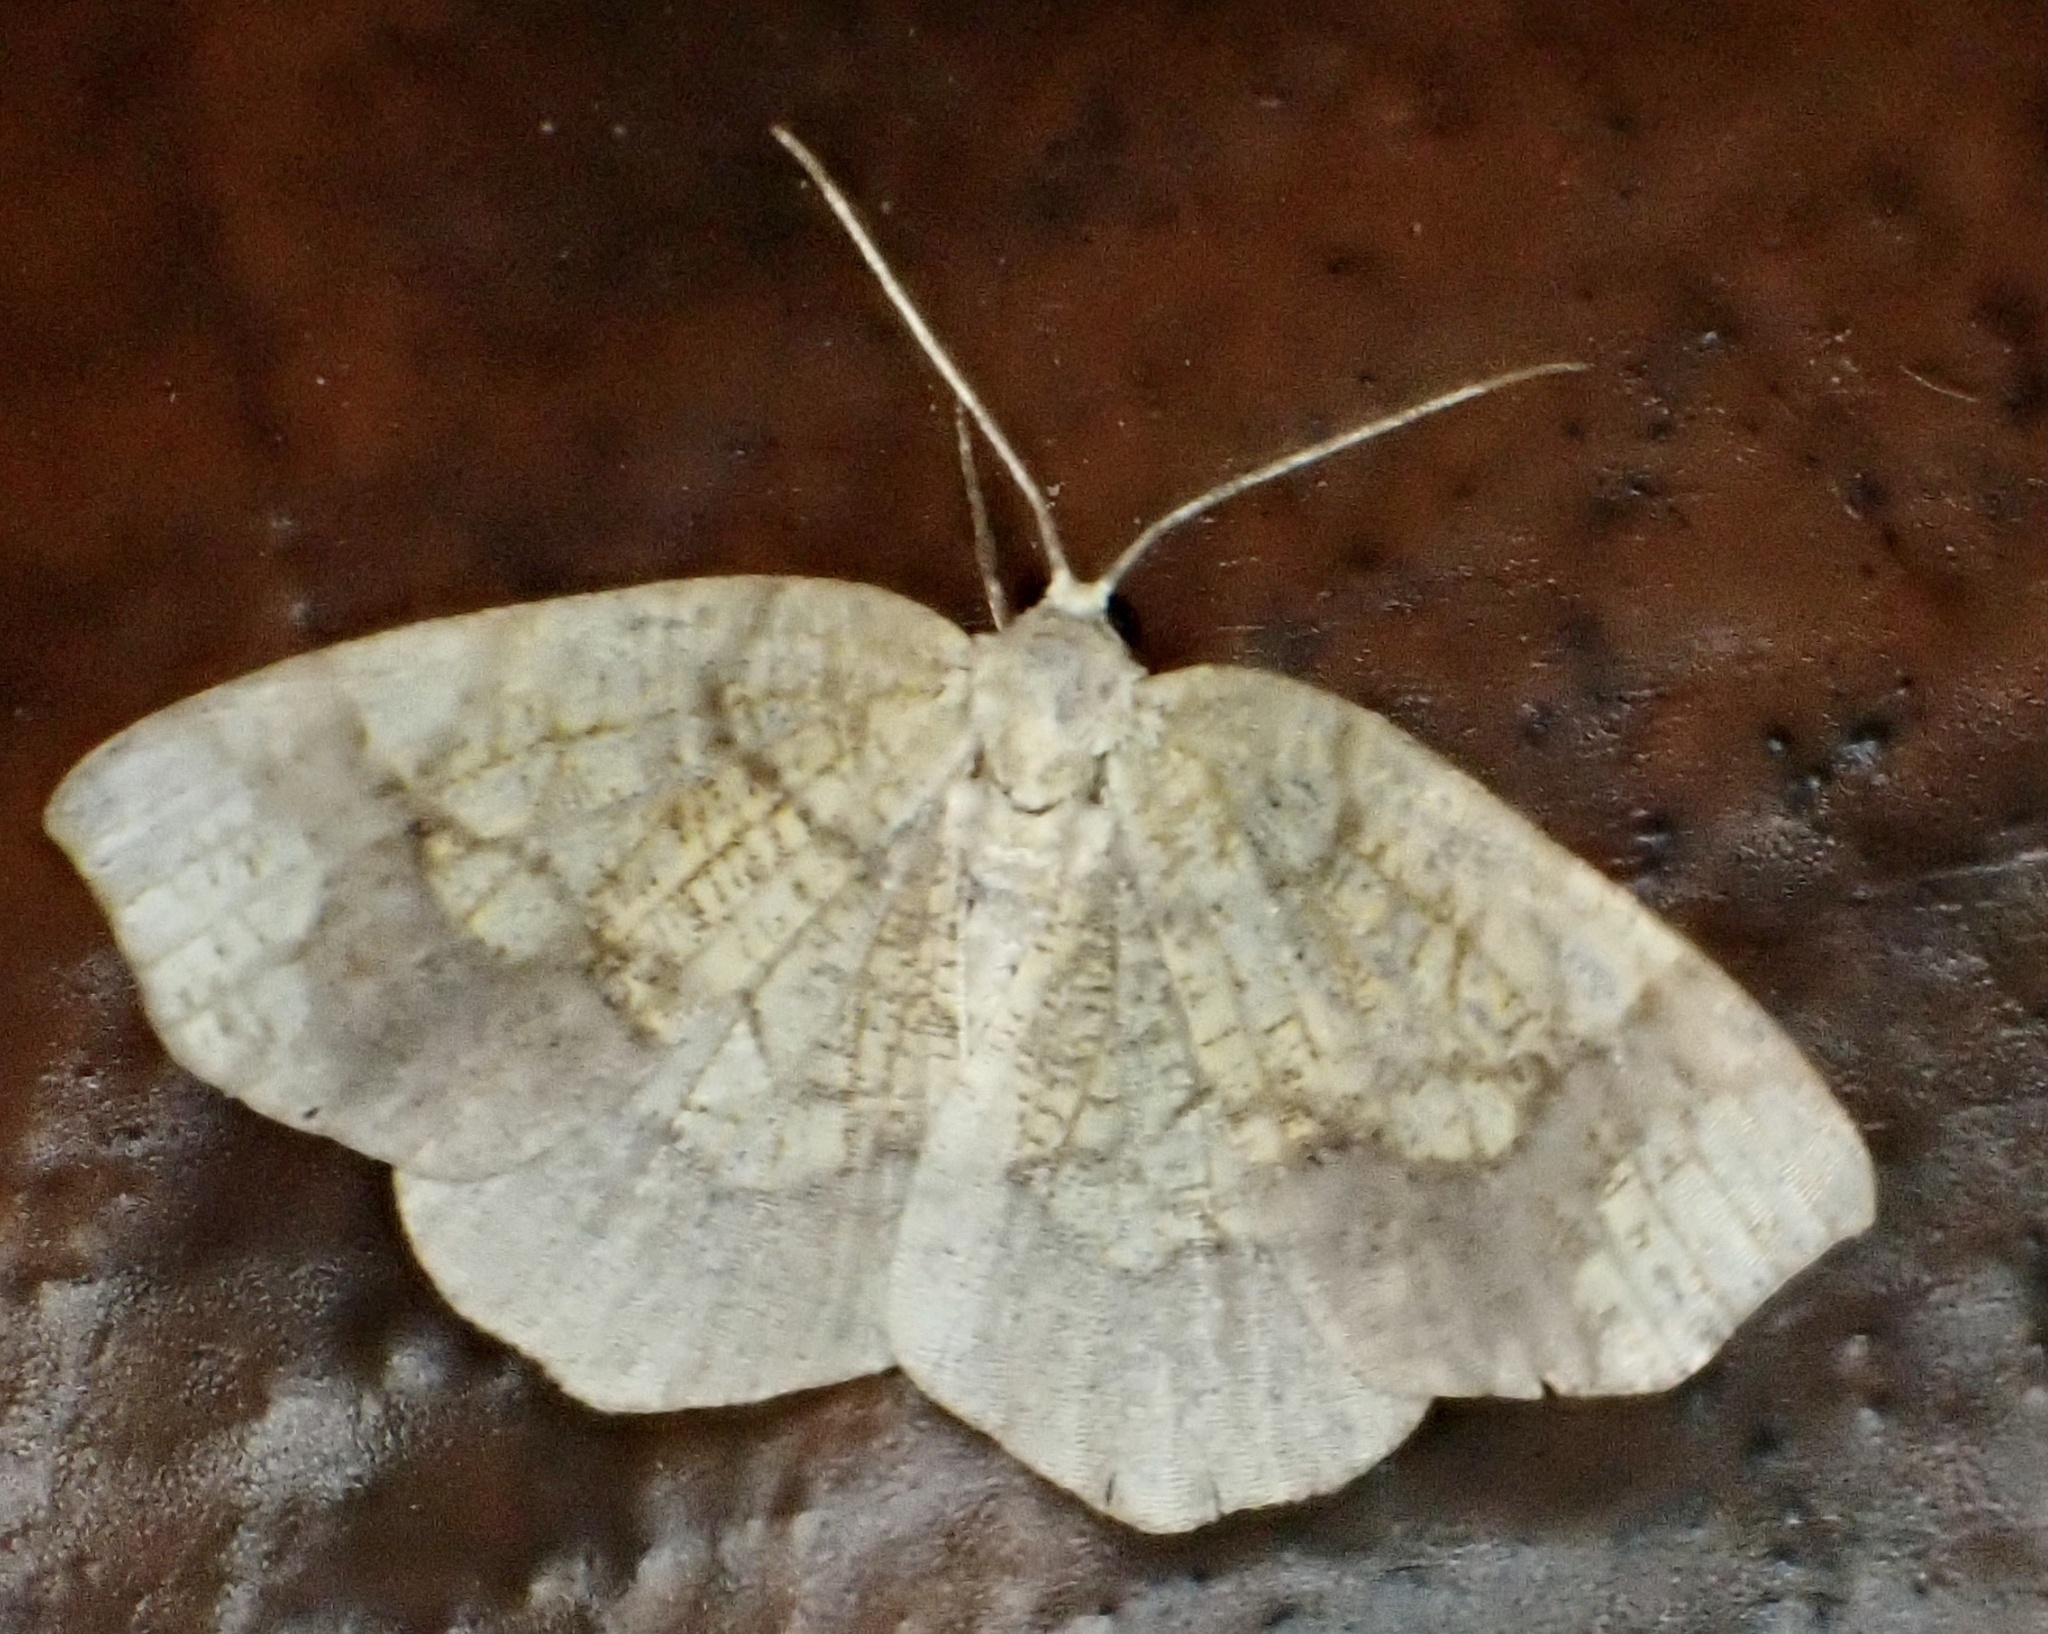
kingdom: Animalia
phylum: Arthropoda
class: Insecta
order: Lepidoptera
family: Geometridae
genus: Nematocampa
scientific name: Nematocampa resistaria
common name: Horned spanworm moth
